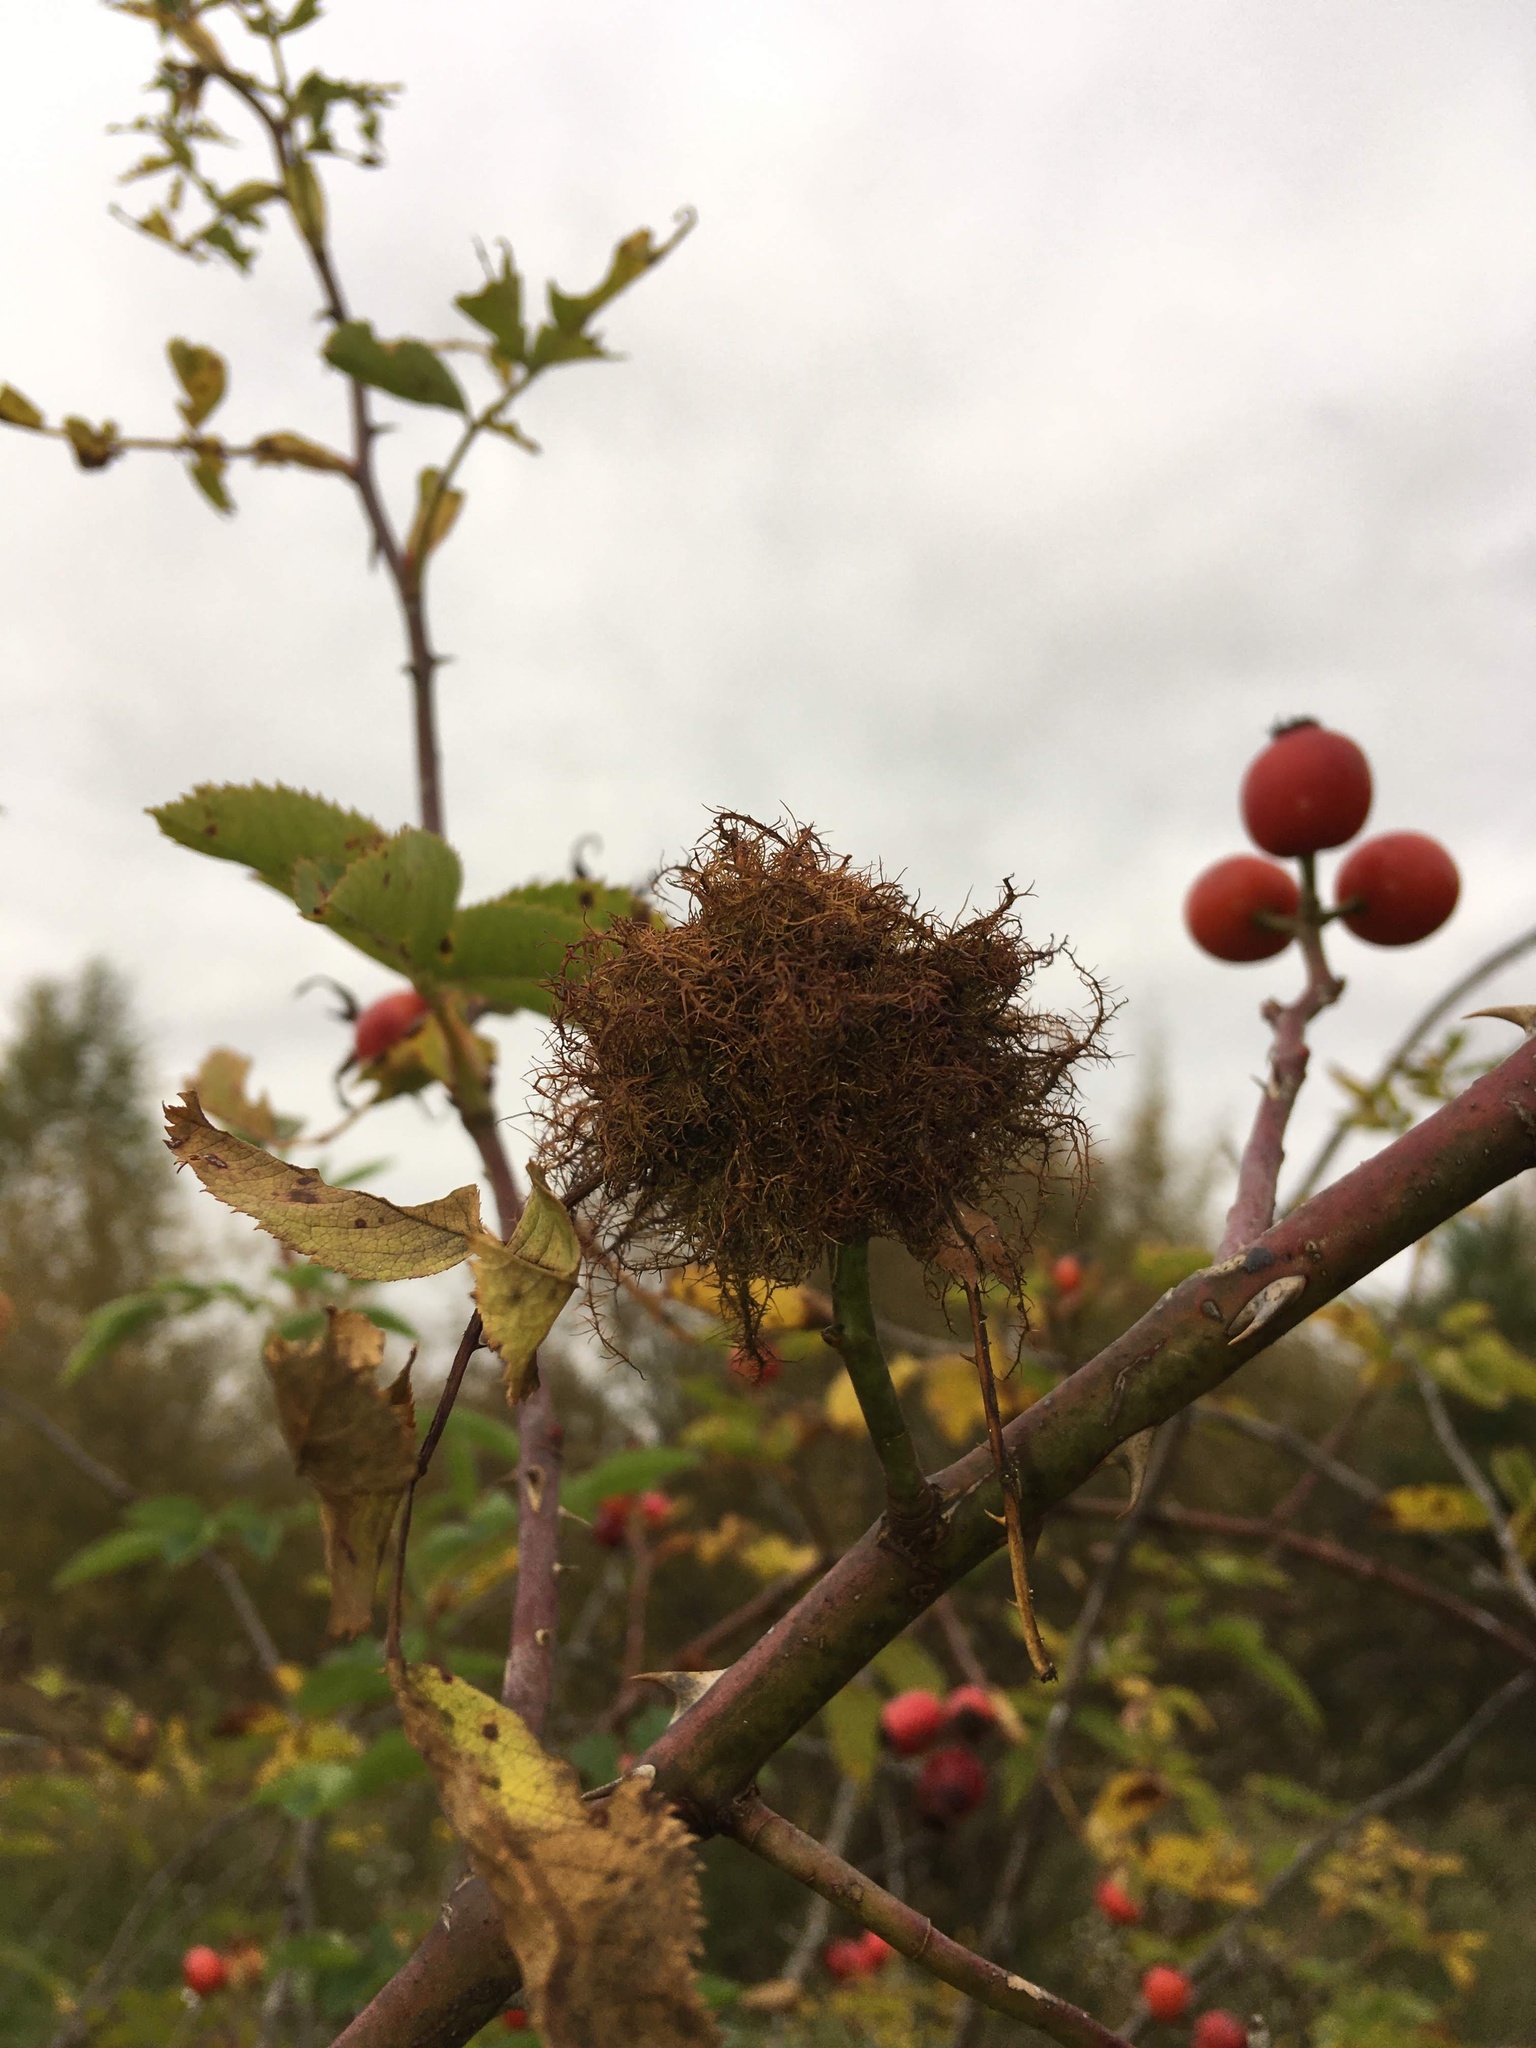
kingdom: Animalia
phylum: Arthropoda
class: Insecta
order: Hymenoptera
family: Cynipidae
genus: Diplolepis
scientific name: Diplolepis rosae
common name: Bedeguar gall
